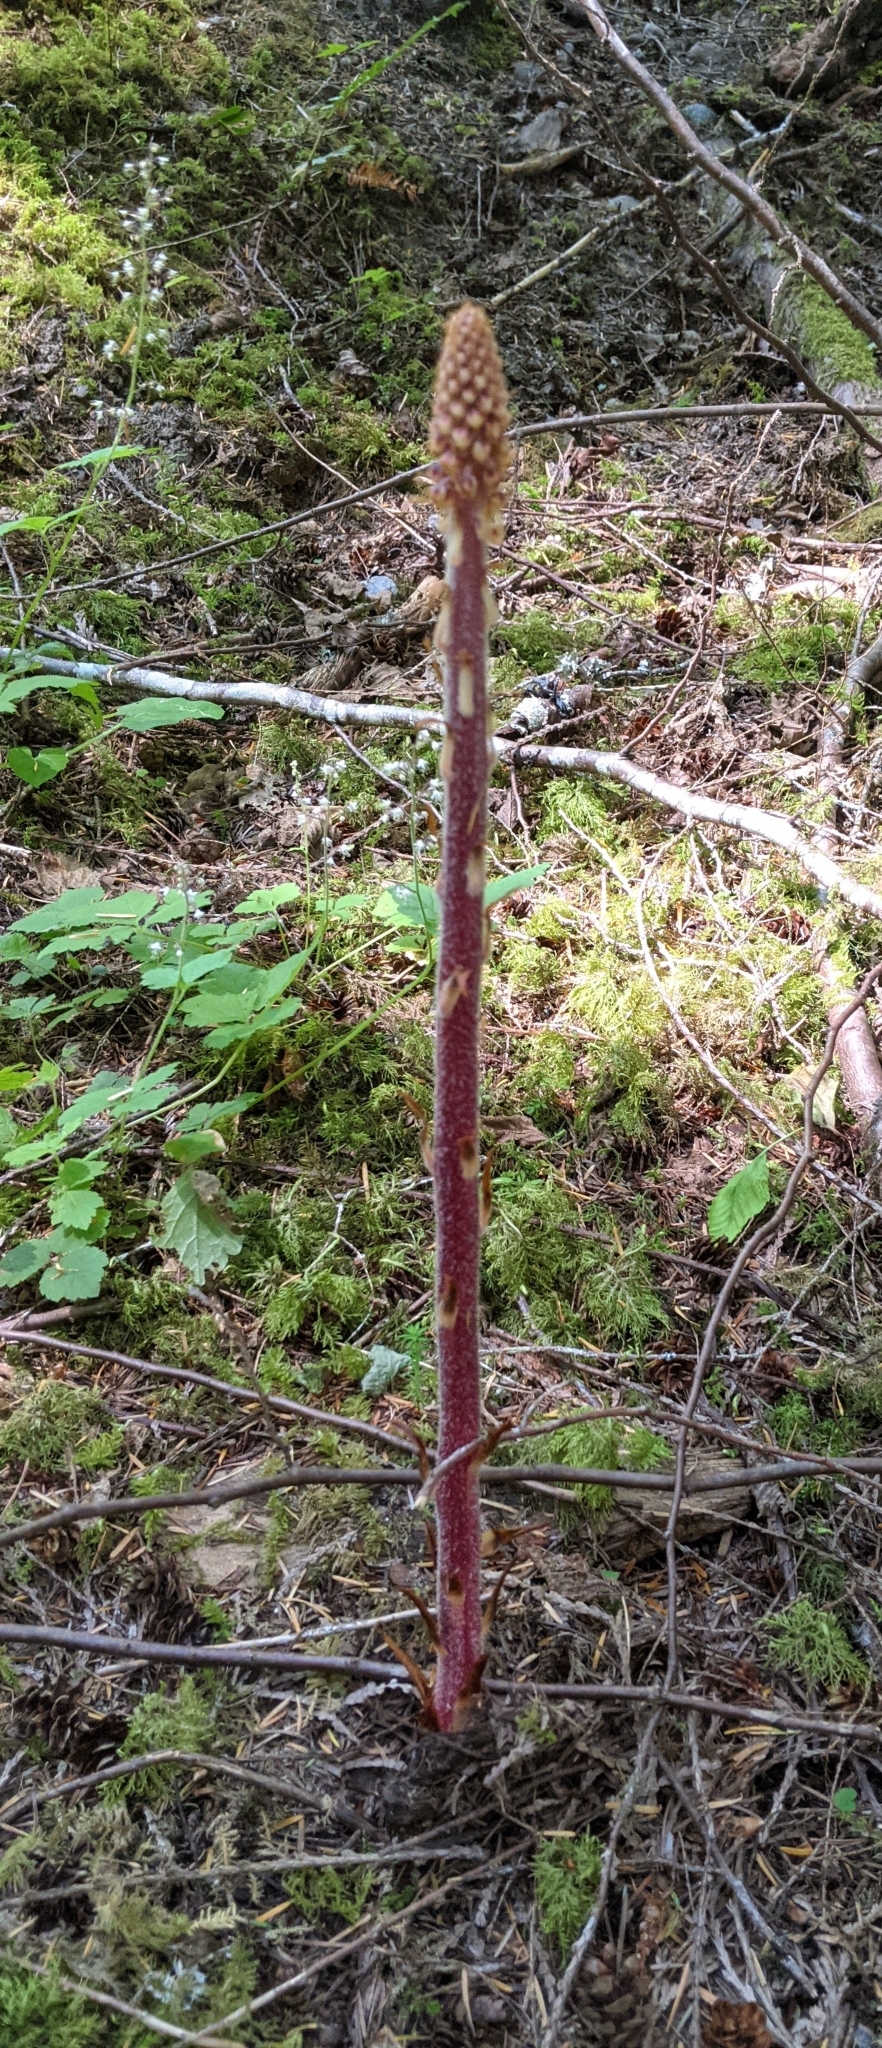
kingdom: Plantae
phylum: Tracheophyta
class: Magnoliopsida
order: Ericales
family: Ericaceae
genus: Pterospora
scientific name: Pterospora andromedea
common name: Giant bird's-nest
